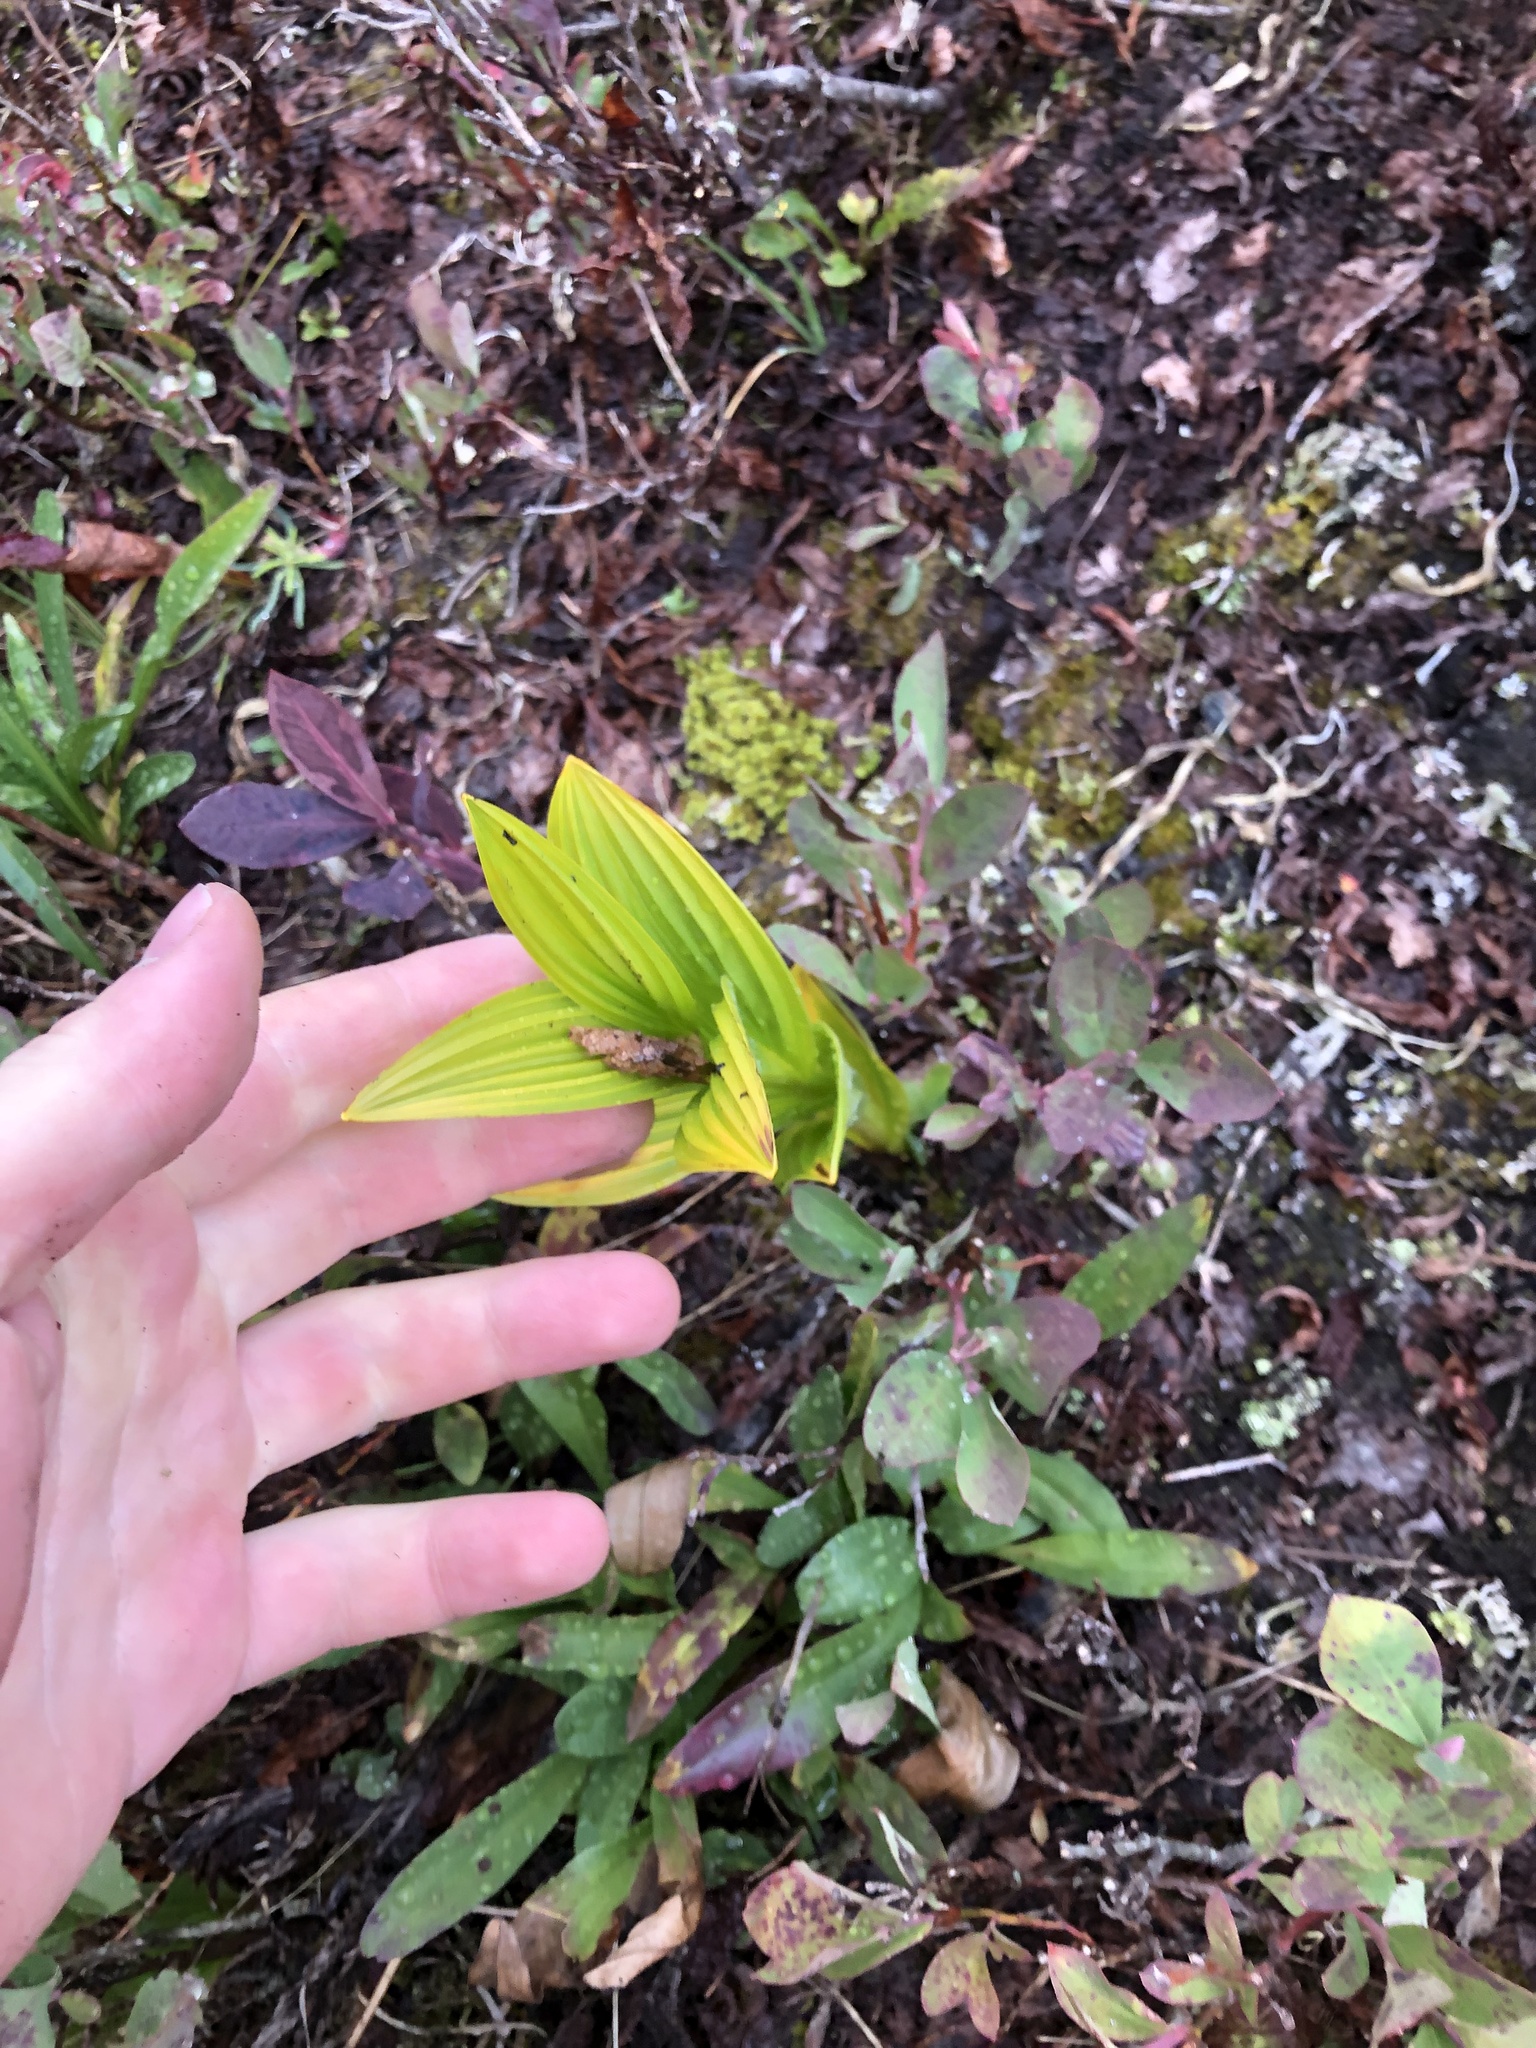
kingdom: Plantae
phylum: Tracheophyta
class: Liliopsida
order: Liliales
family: Melanthiaceae
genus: Veratrum
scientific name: Veratrum viride
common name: American false hellebore
